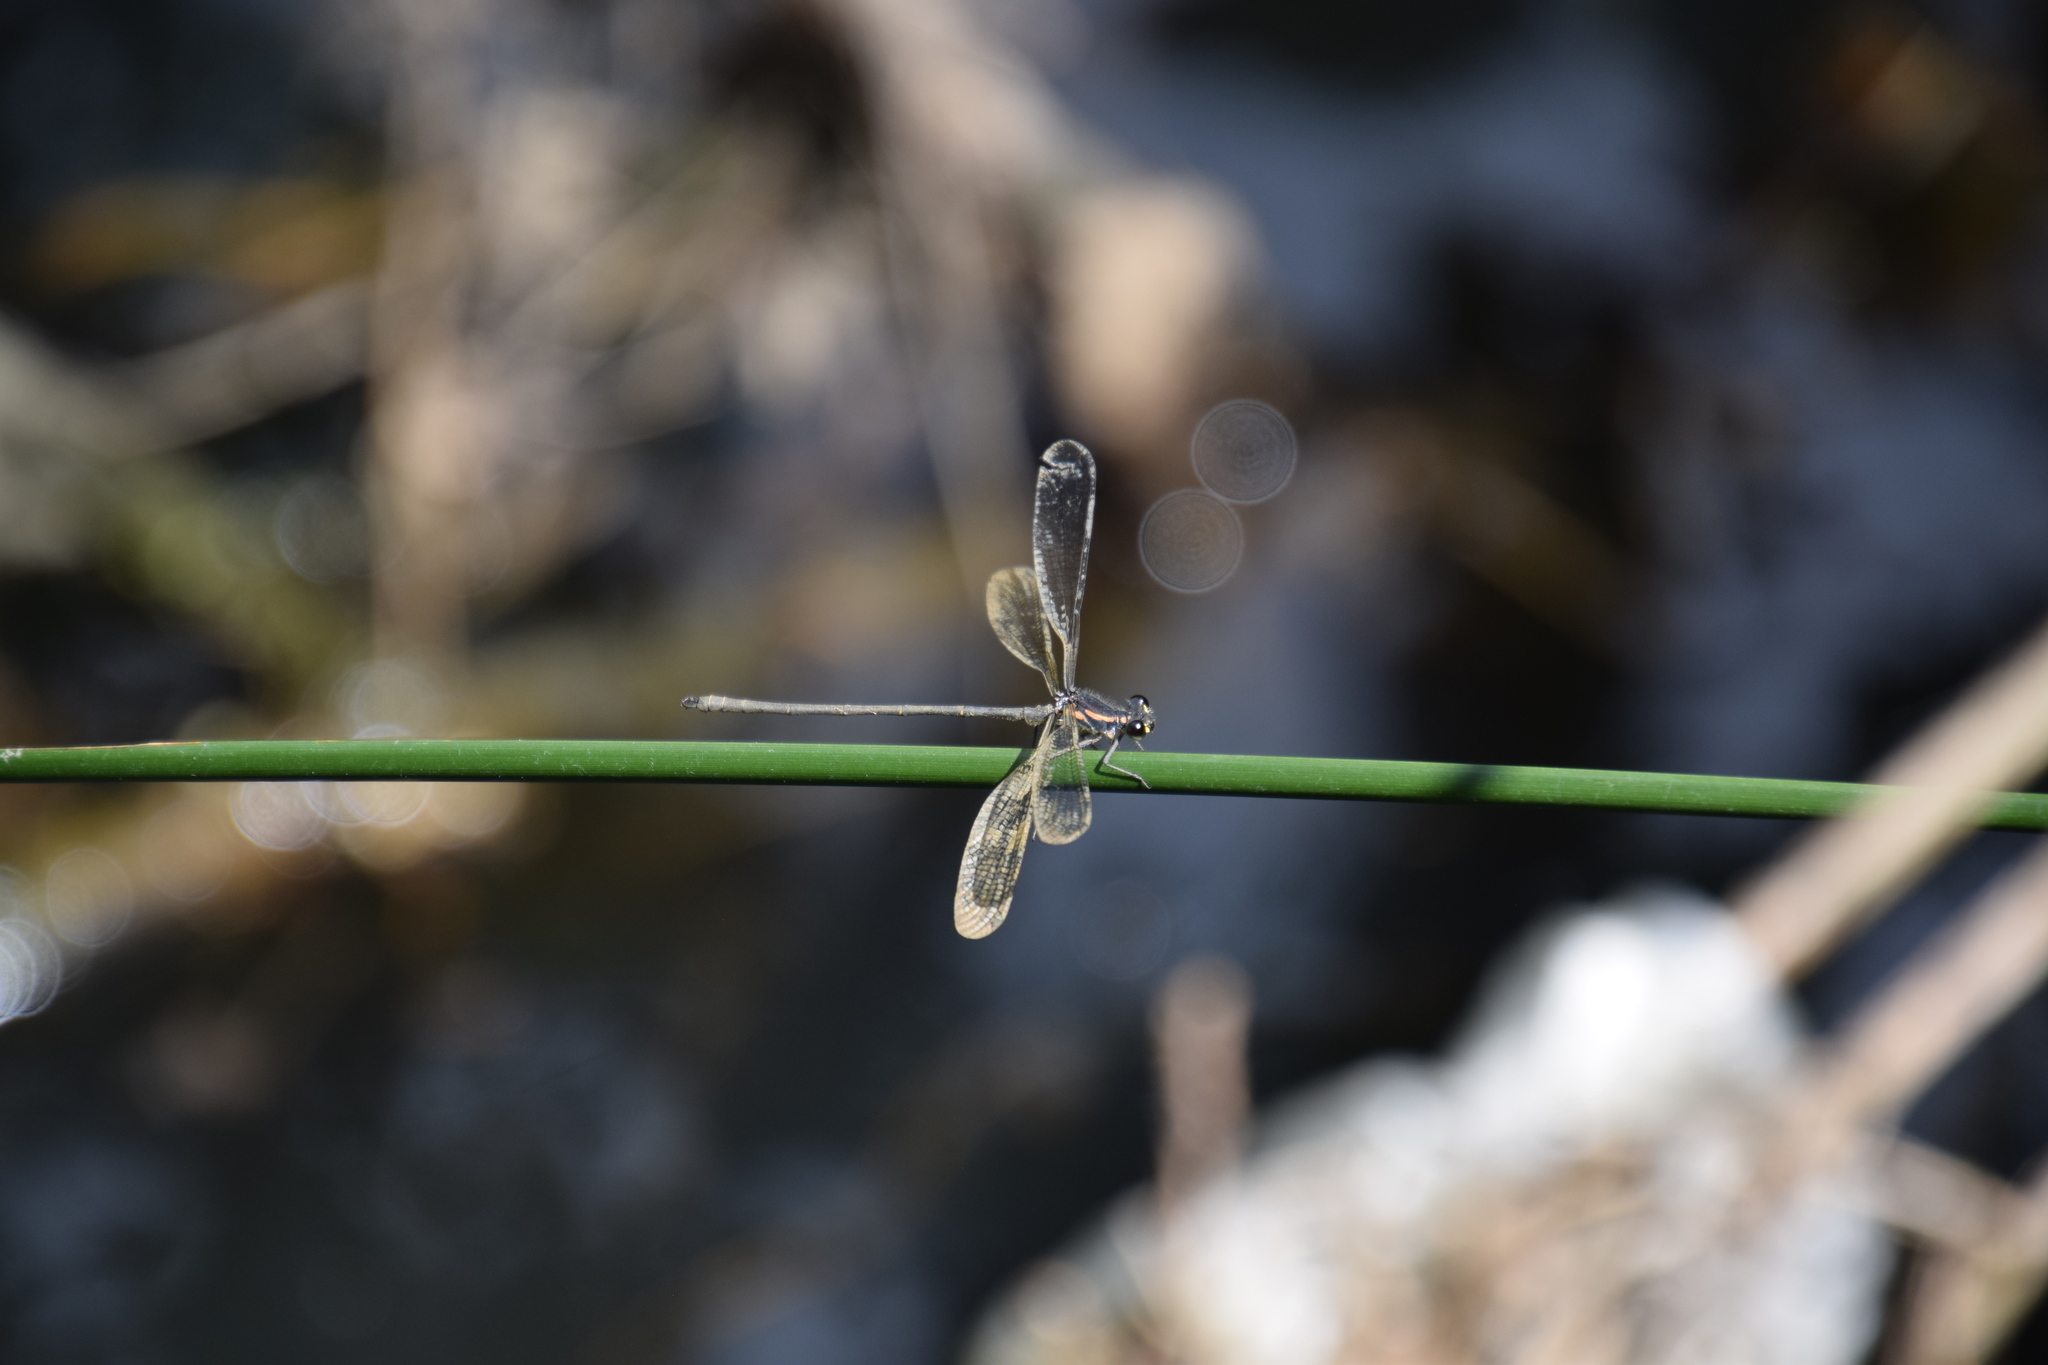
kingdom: Animalia
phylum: Arthropoda
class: Insecta
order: Odonata
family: Argiolestidae
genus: Austroargiolestes
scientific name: Austroargiolestes icteromelas
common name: Common flatwing
